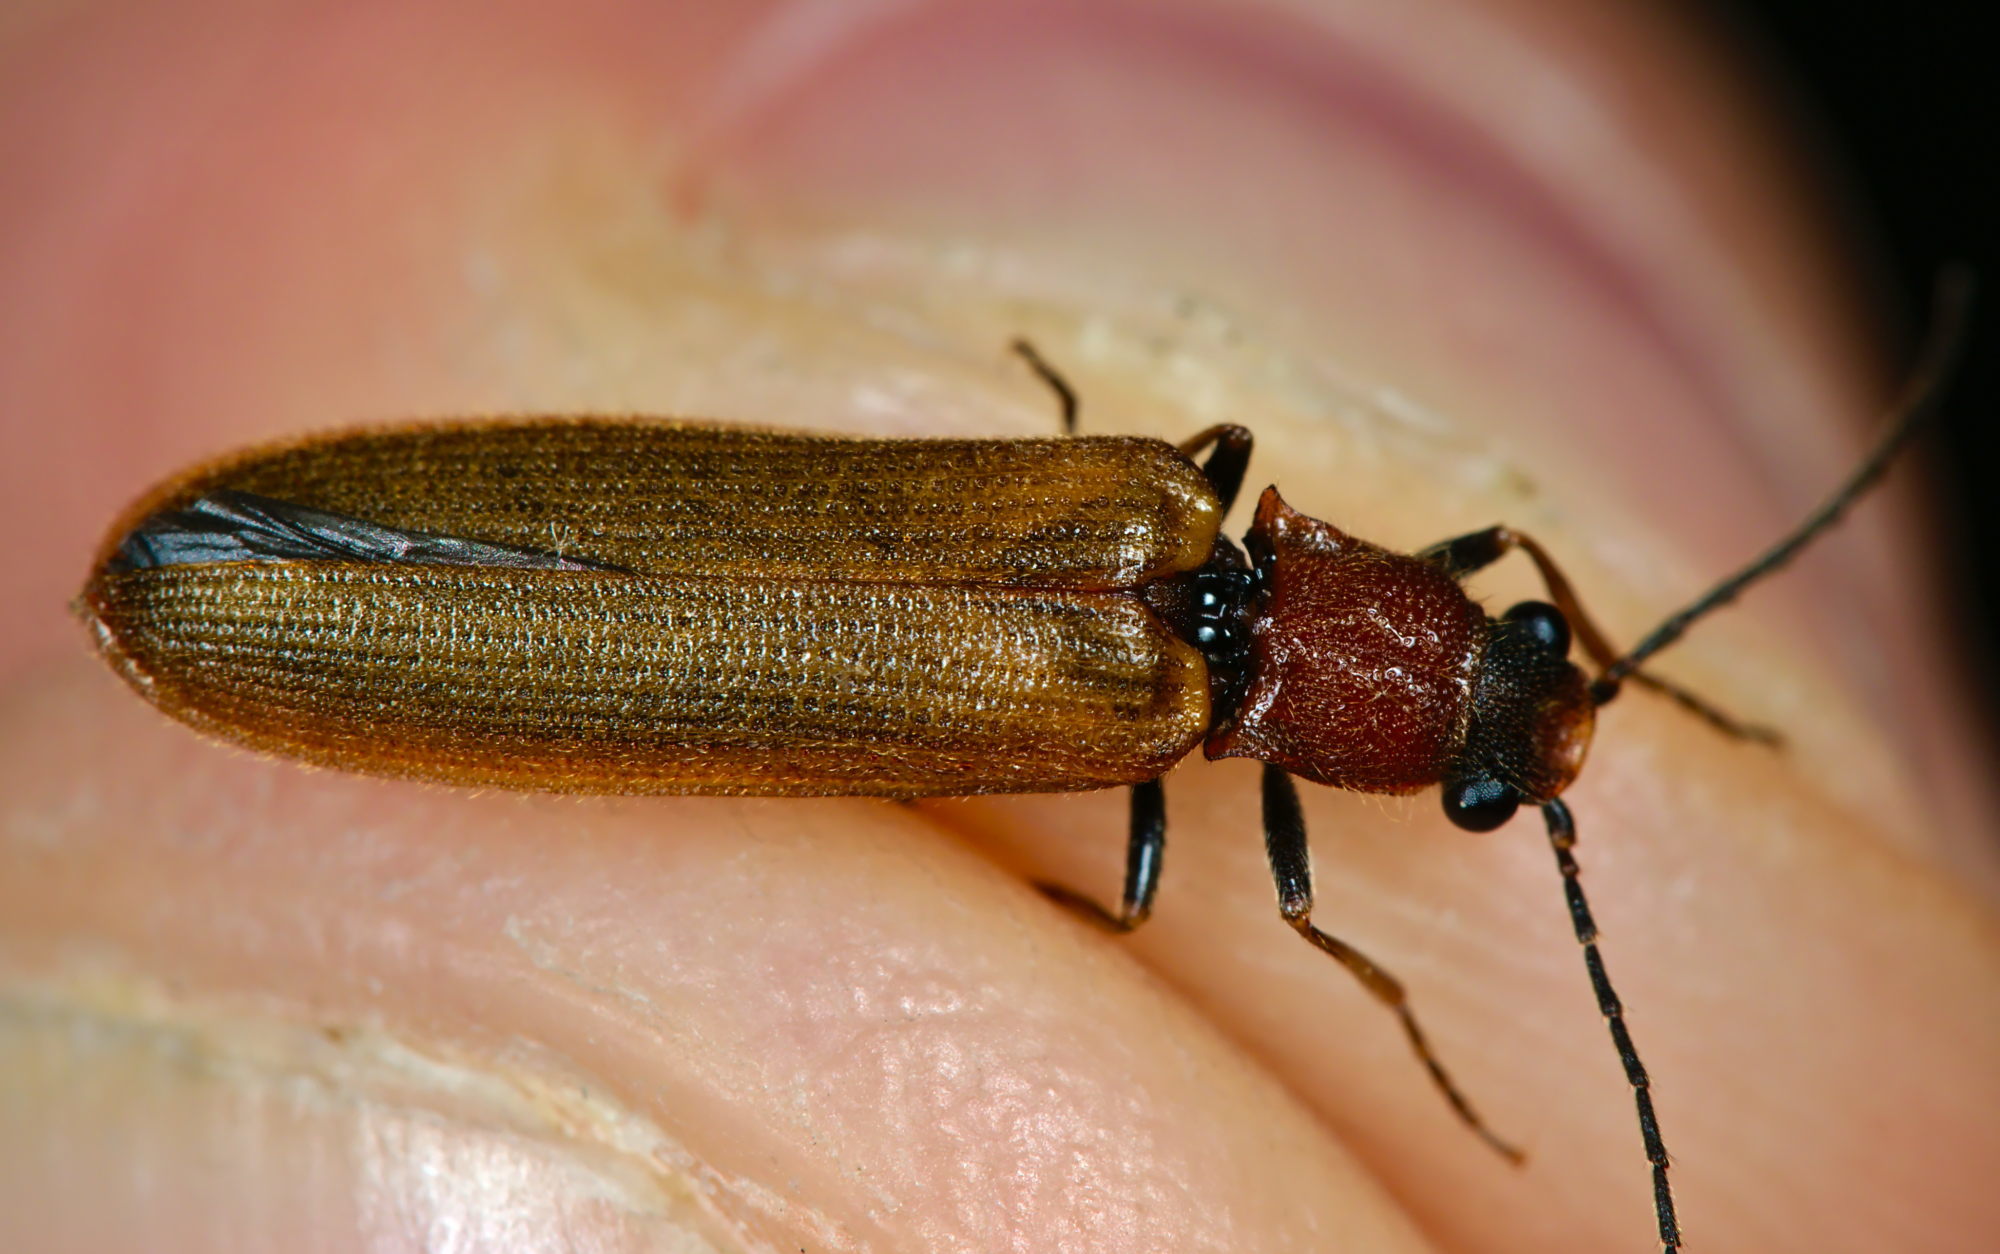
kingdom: Animalia
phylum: Arthropoda
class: Insecta
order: Coleoptera
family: Elateridae
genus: Denticollis
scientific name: Denticollis linearis
